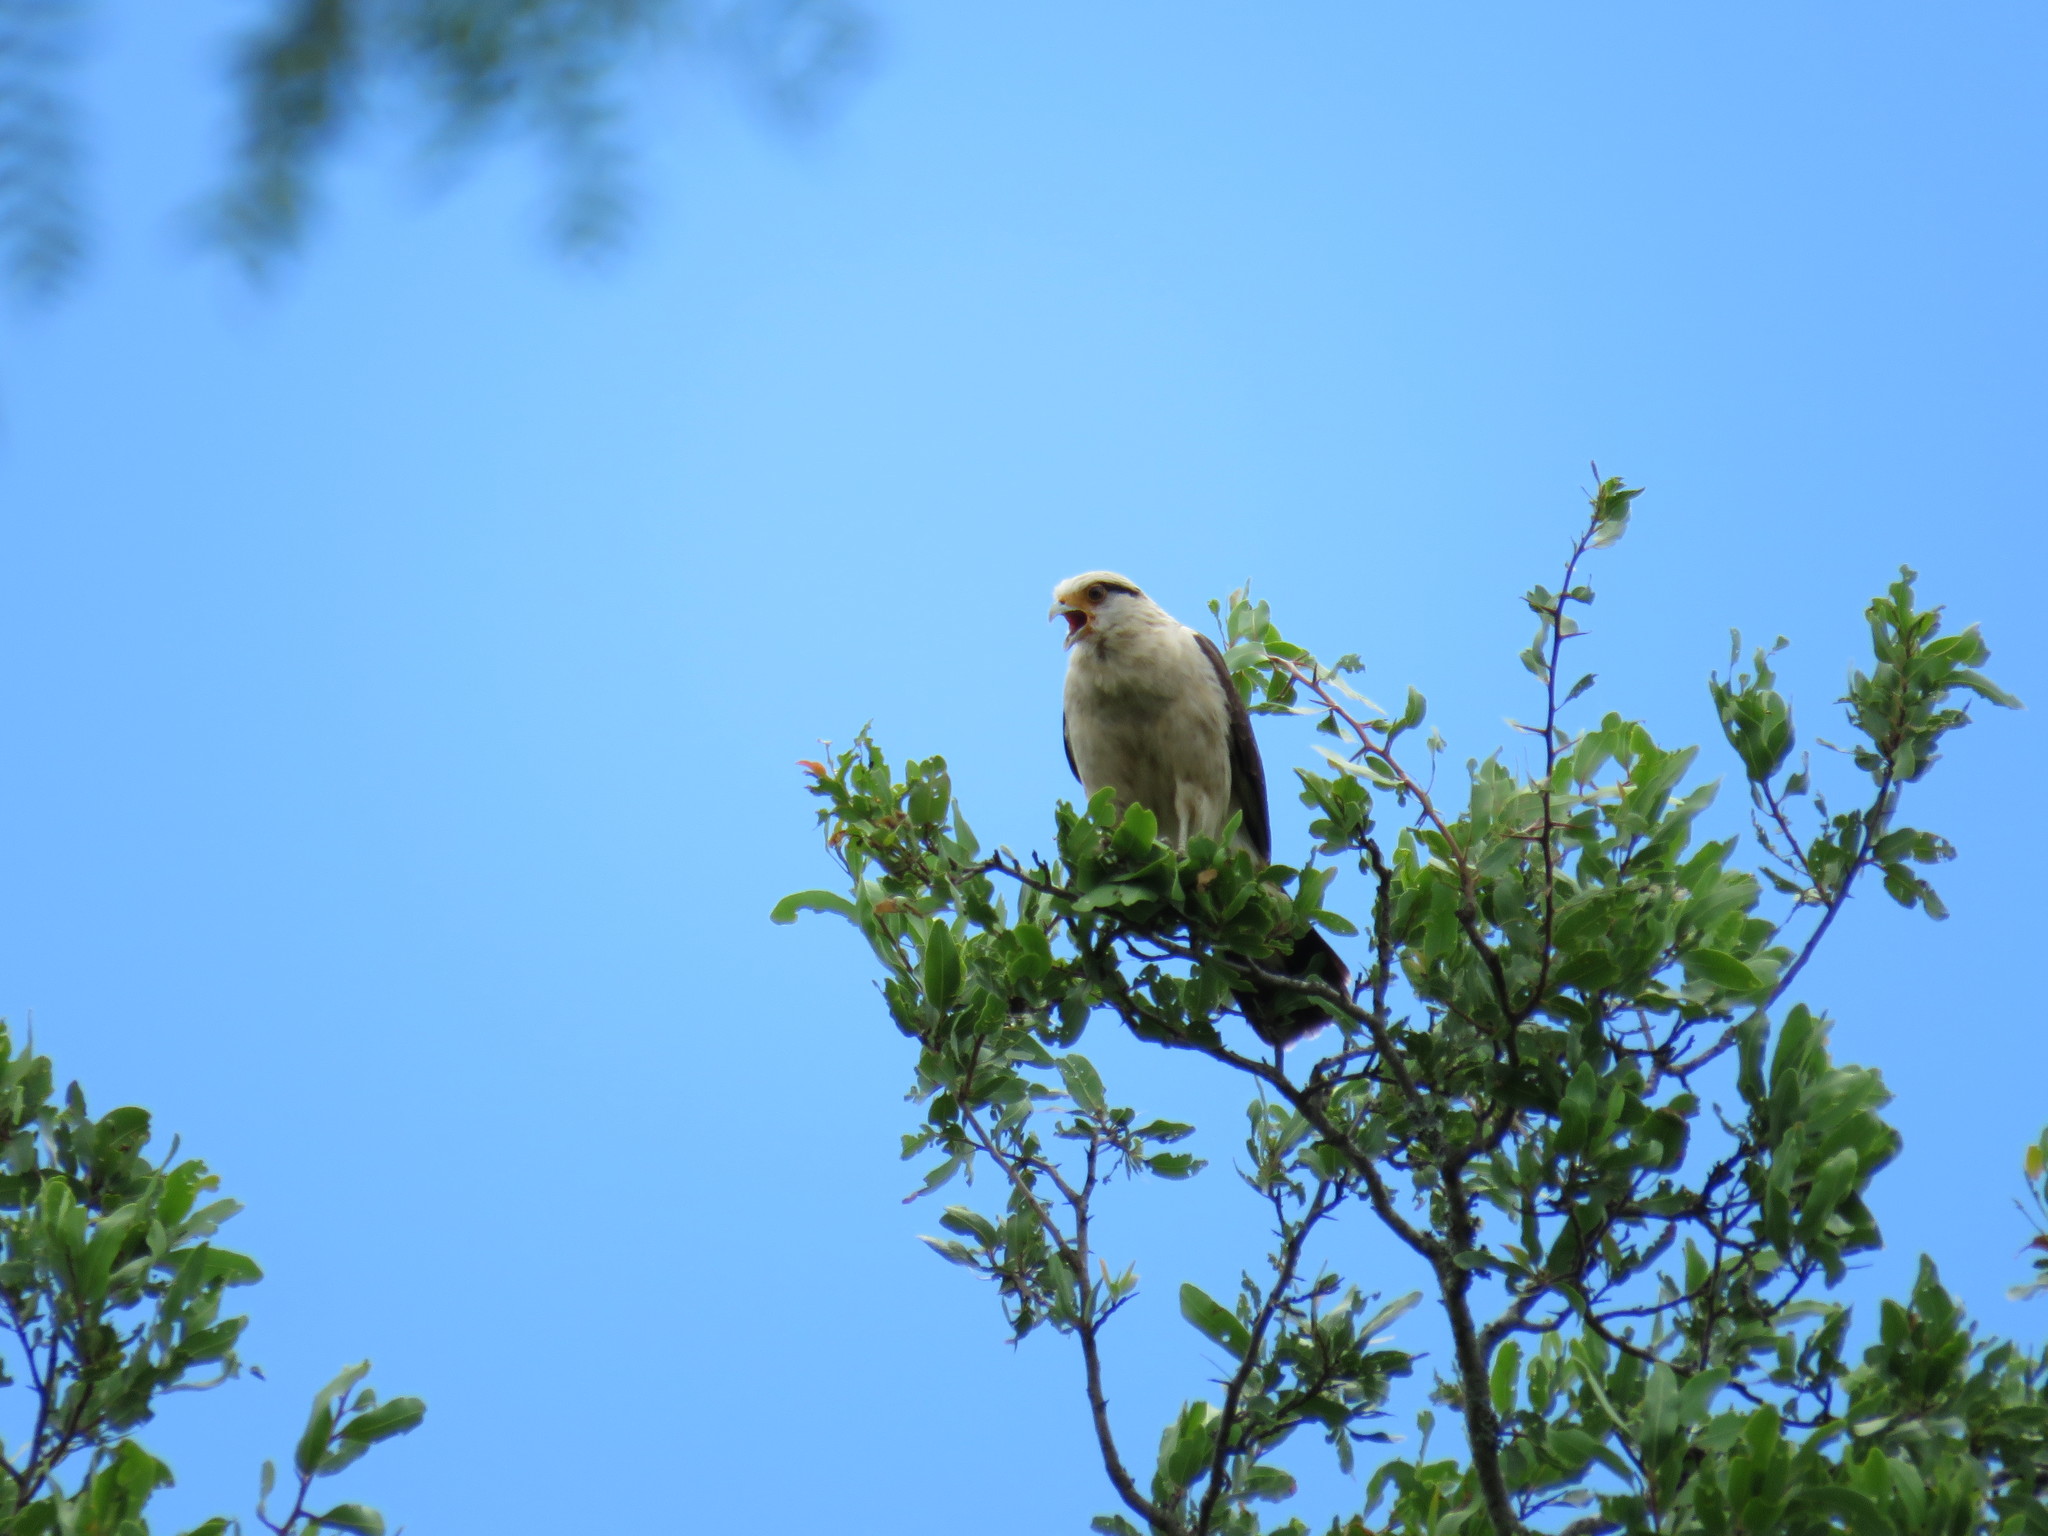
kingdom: Animalia
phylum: Chordata
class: Aves
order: Falconiformes
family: Falconidae
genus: Daptrius
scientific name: Daptrius
